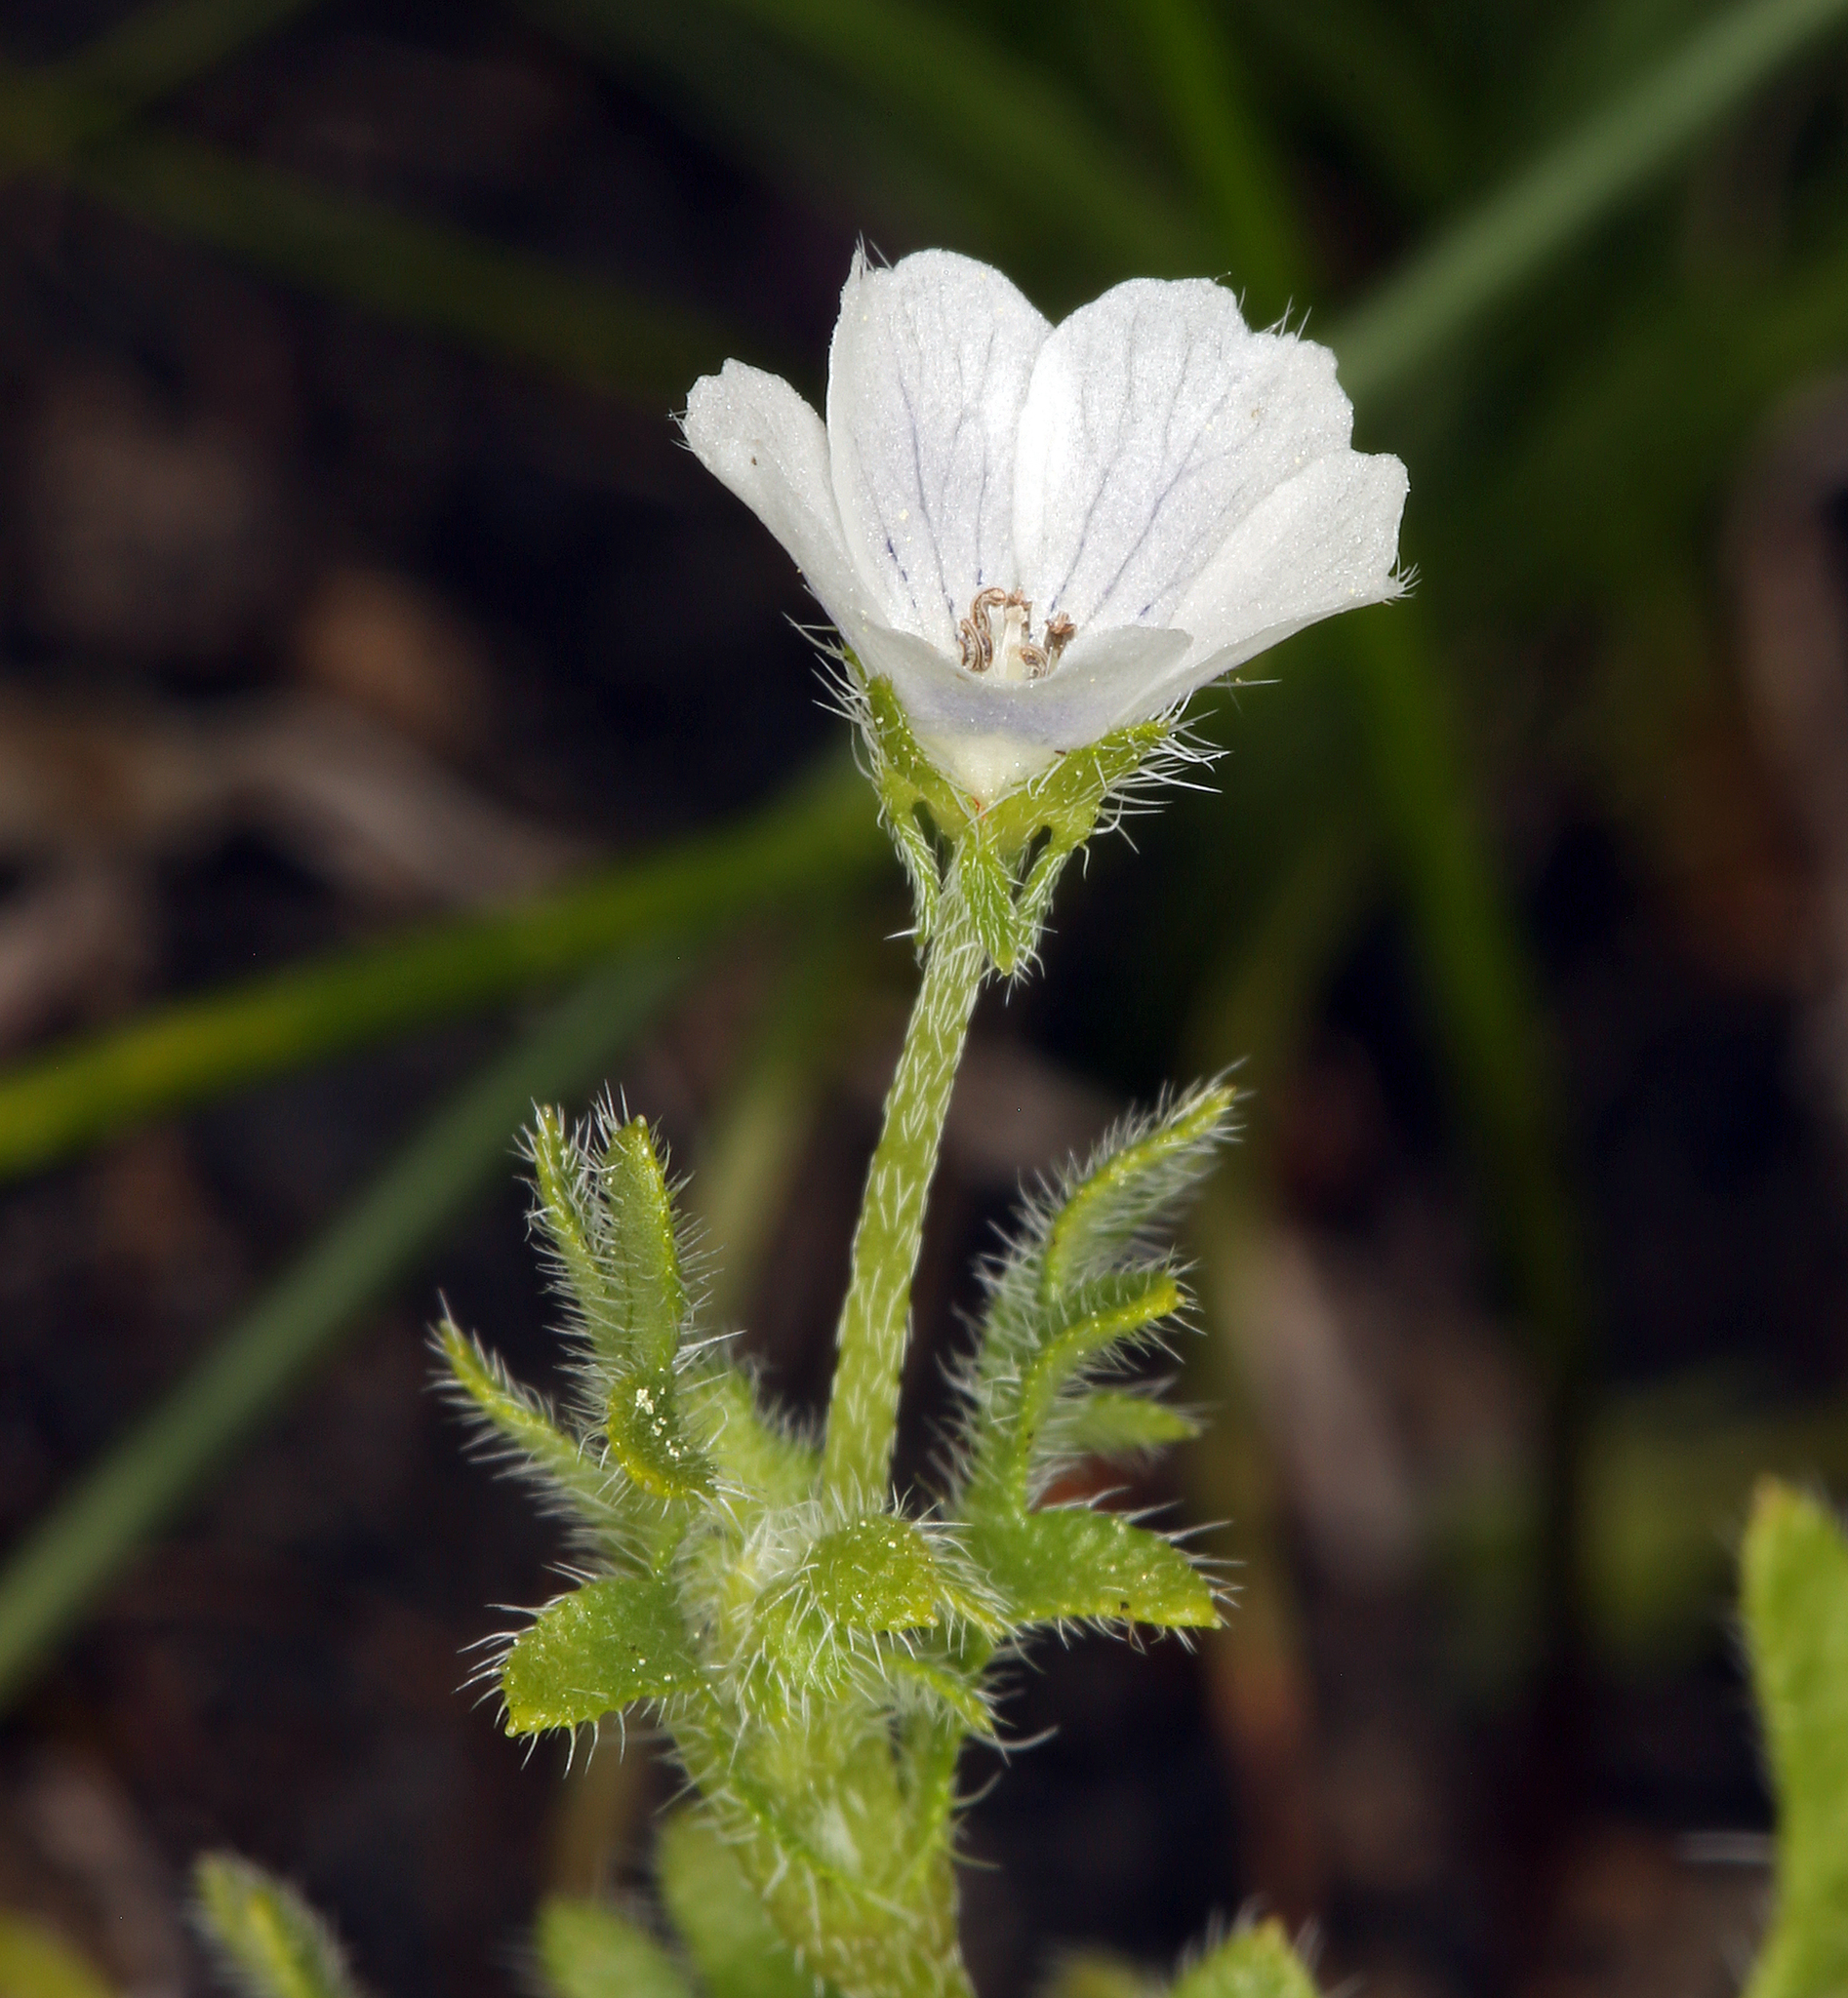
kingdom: Plantae
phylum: Tracheophyta
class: Magnoliopsida
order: Boraginales
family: Hydrophyllaceae
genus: Nemophila
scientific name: Nemophila heterophylla
